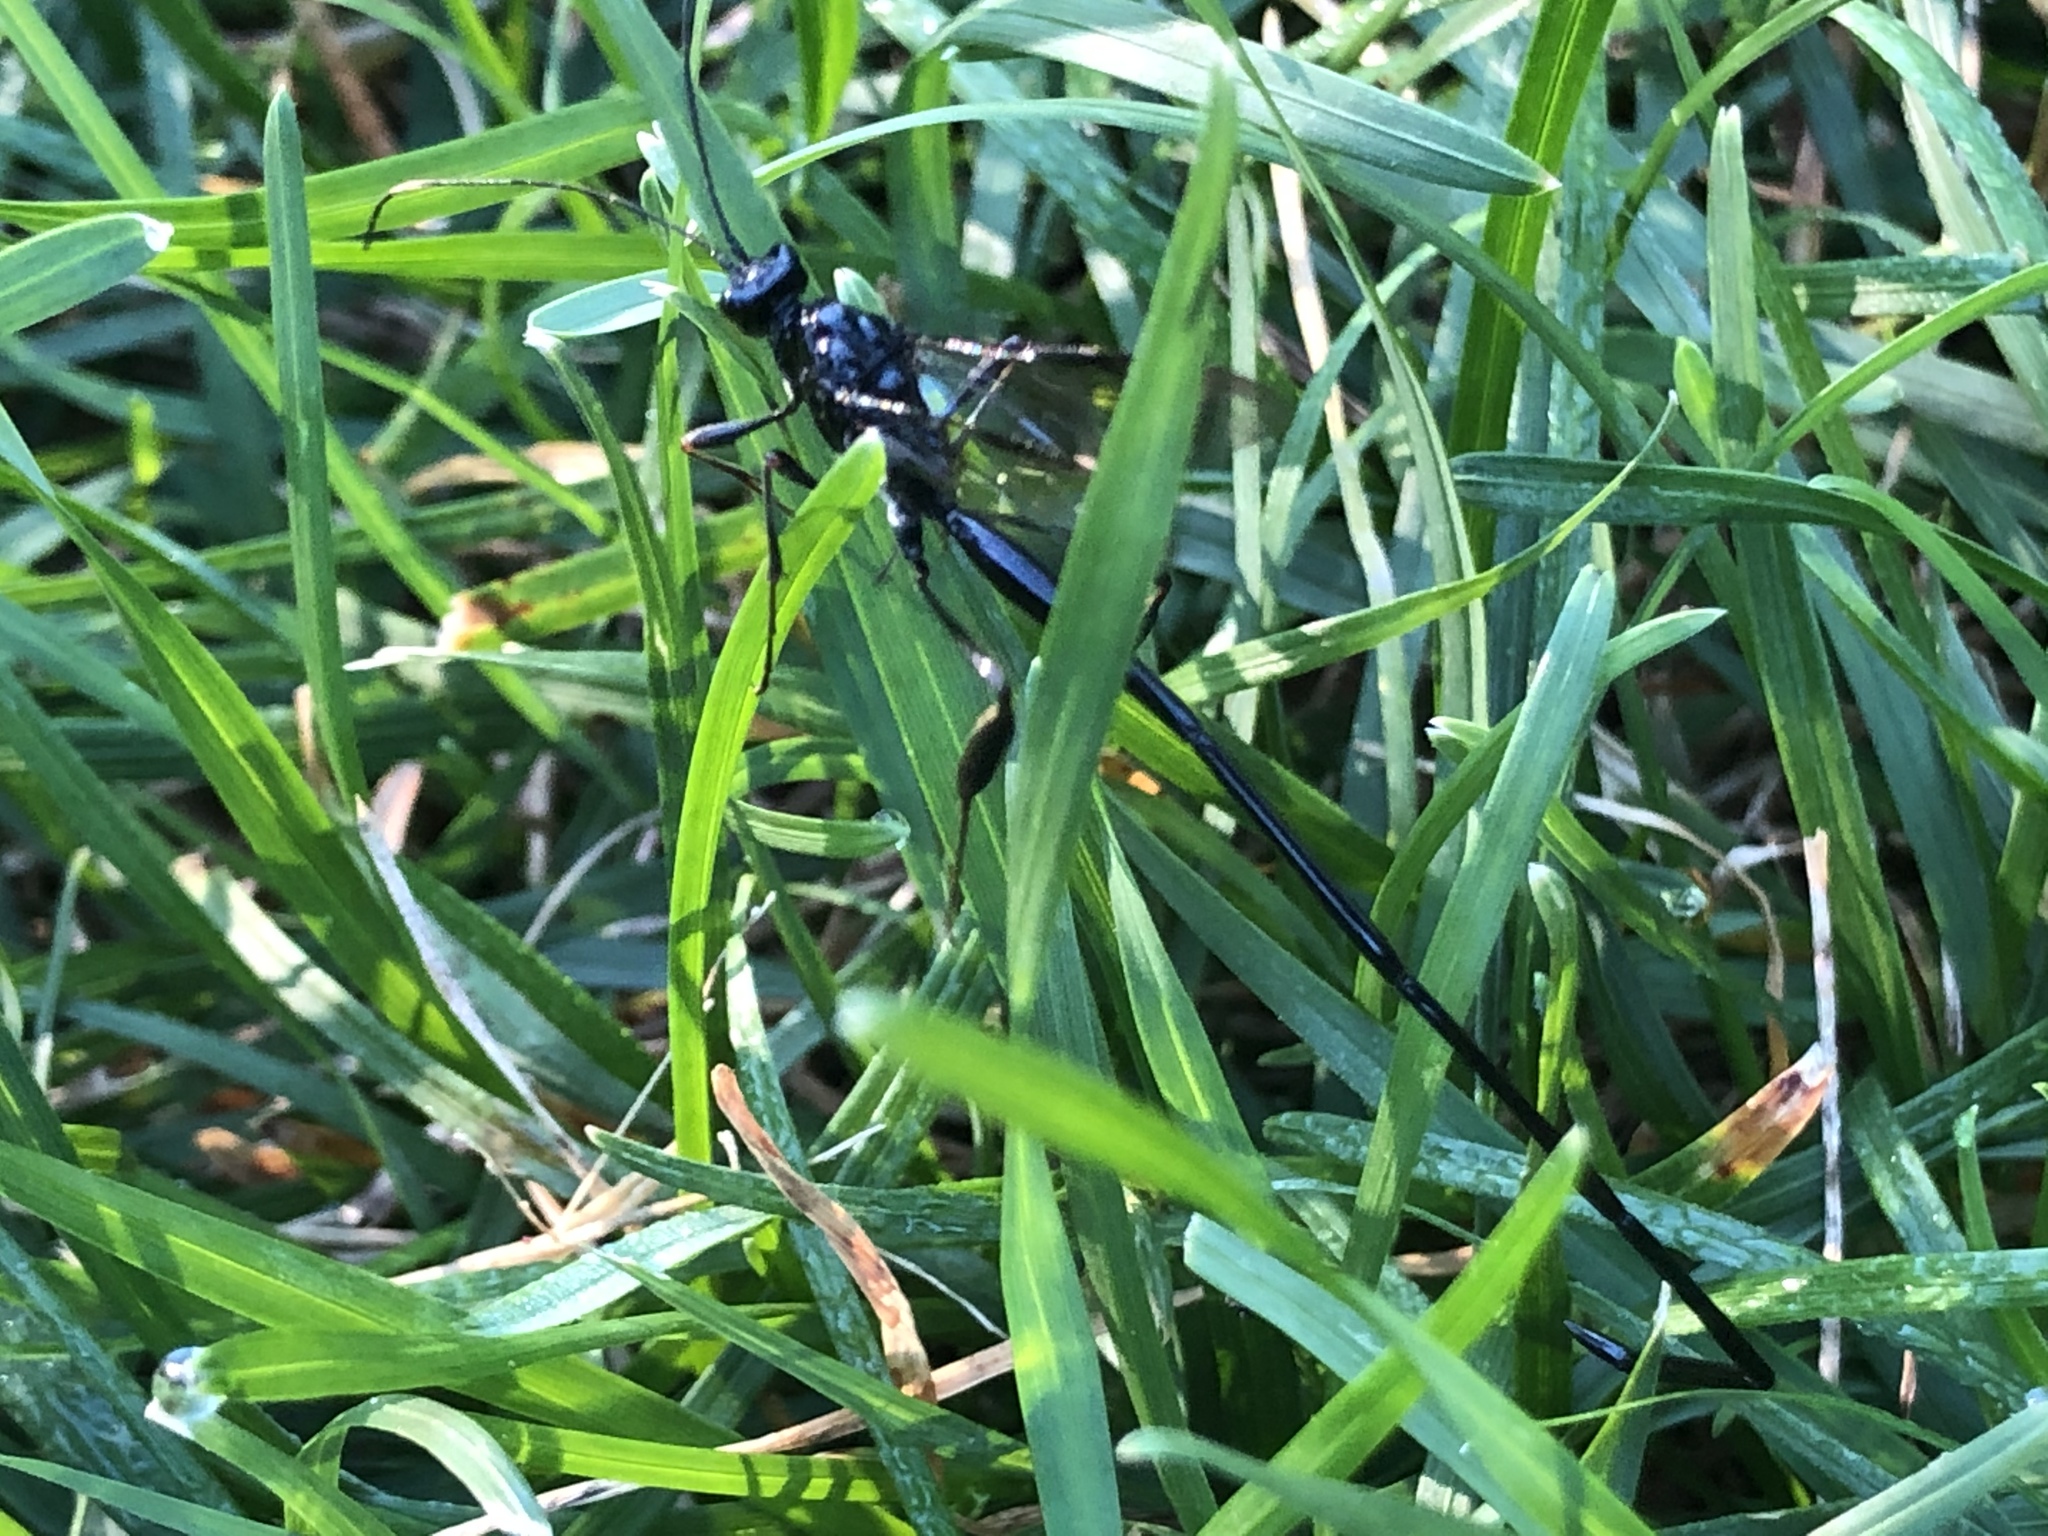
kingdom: Animalia
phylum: Arthropoda
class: Insecta
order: Hymenoptera
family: Pelecinidae
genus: Pelecinus
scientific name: Pelecinus polyturator
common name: American pelecinid wasp
